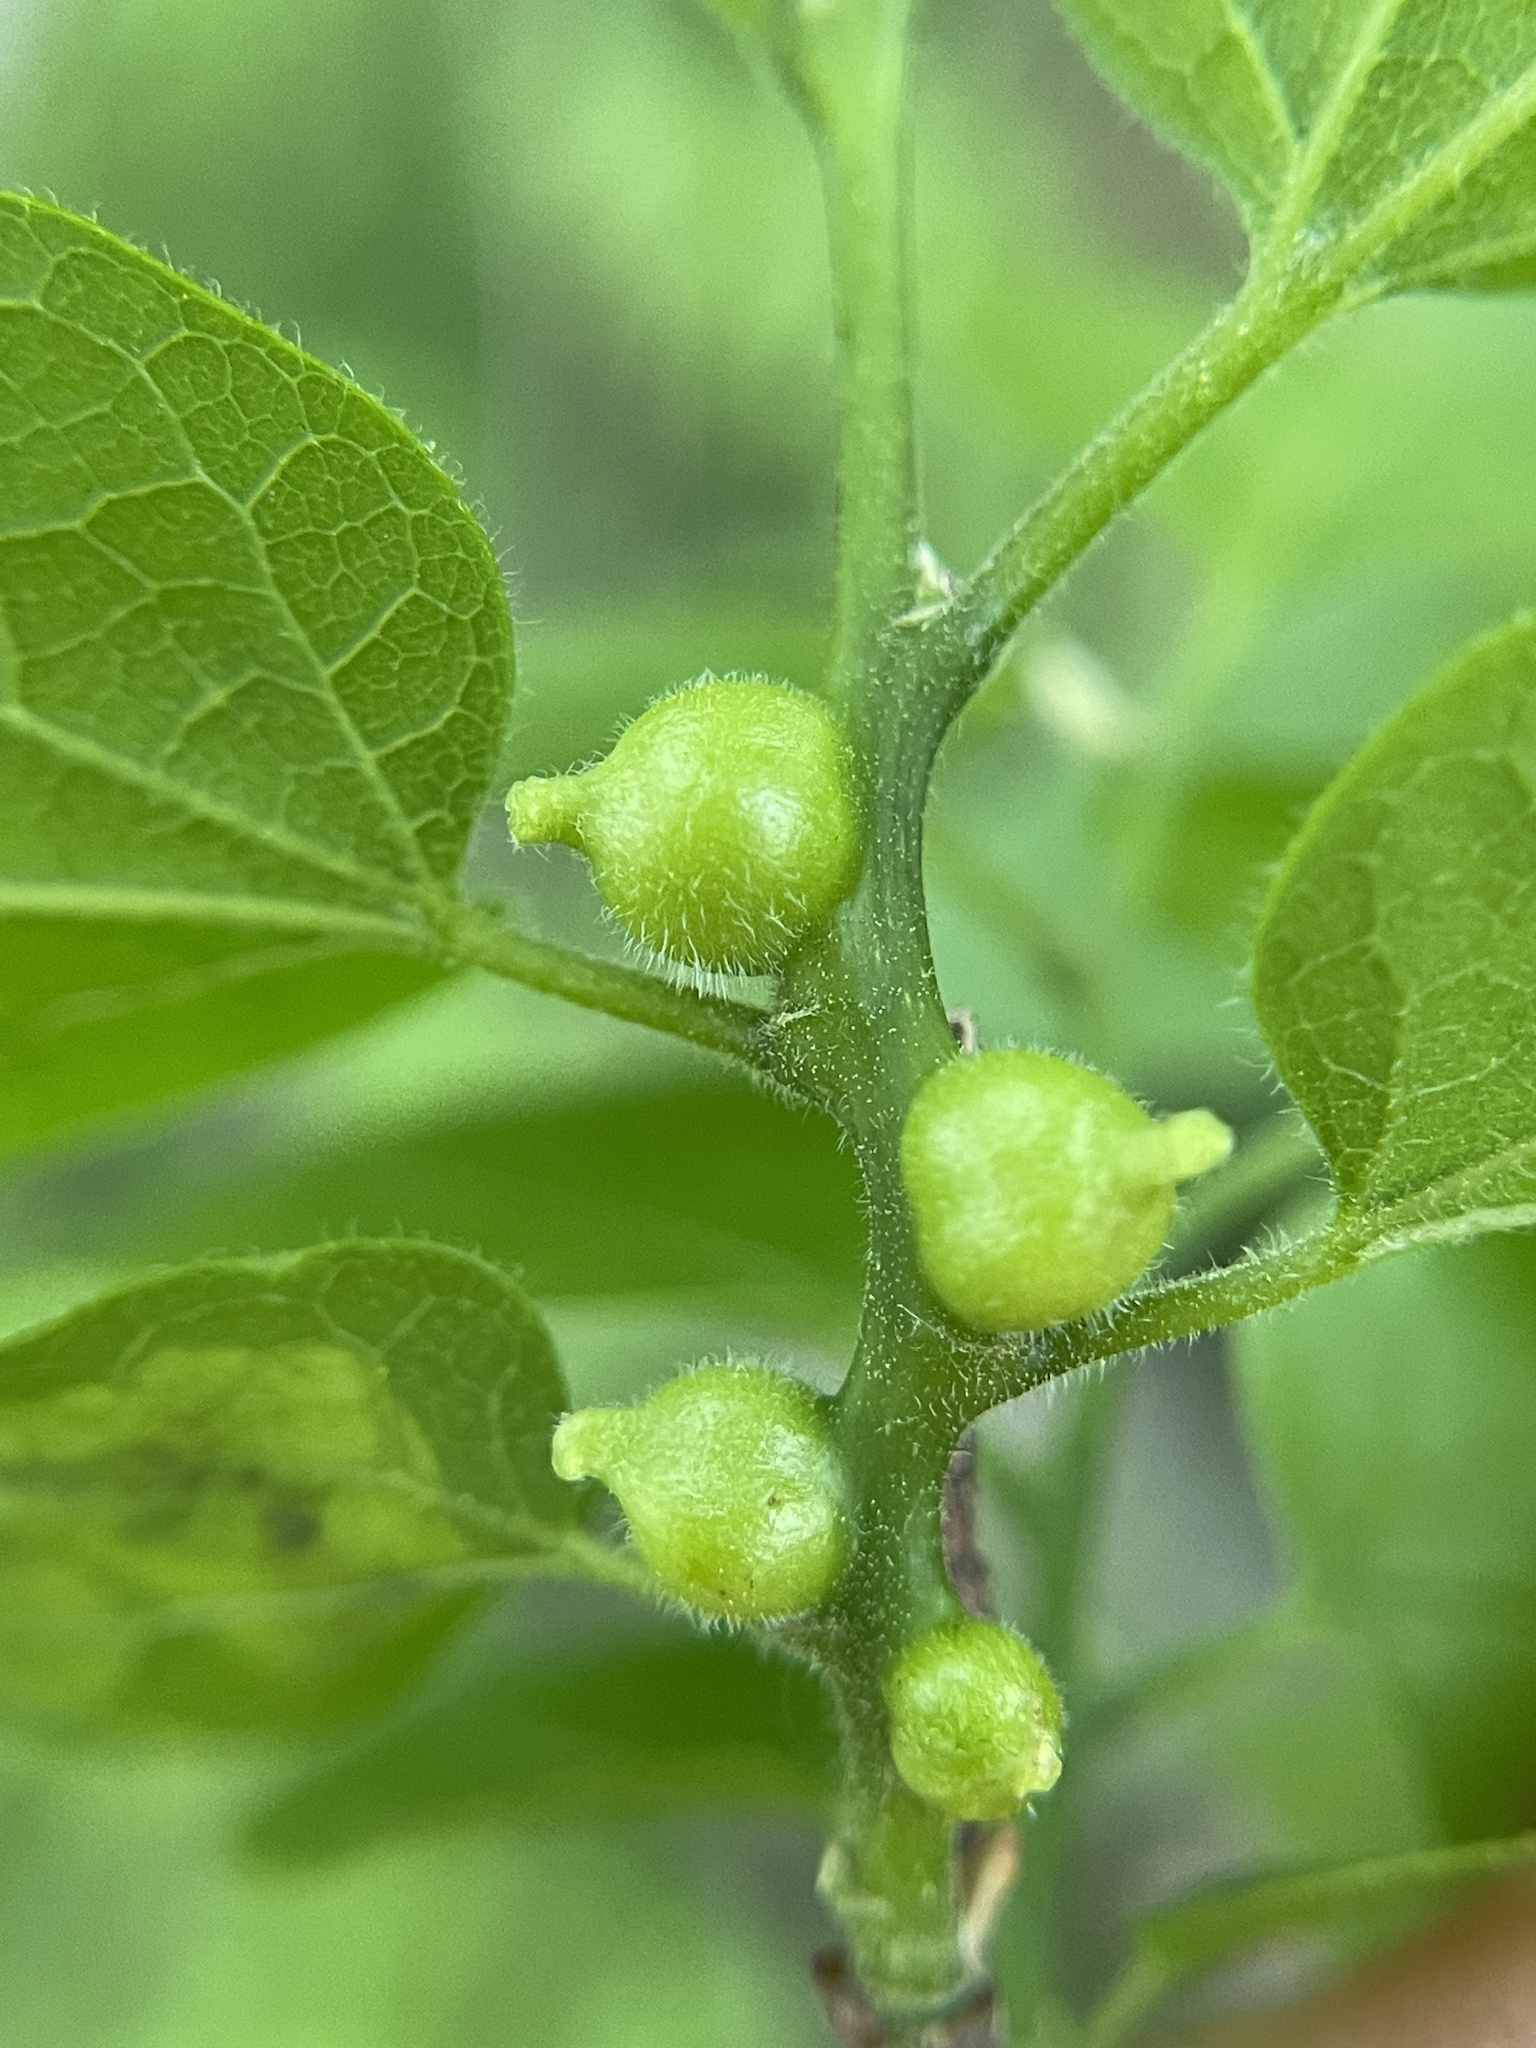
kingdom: Animalia
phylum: Arthropoda
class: Insecta
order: Diptera
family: Cecidomyiidae
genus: Celticecis
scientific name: Celticecis connata
